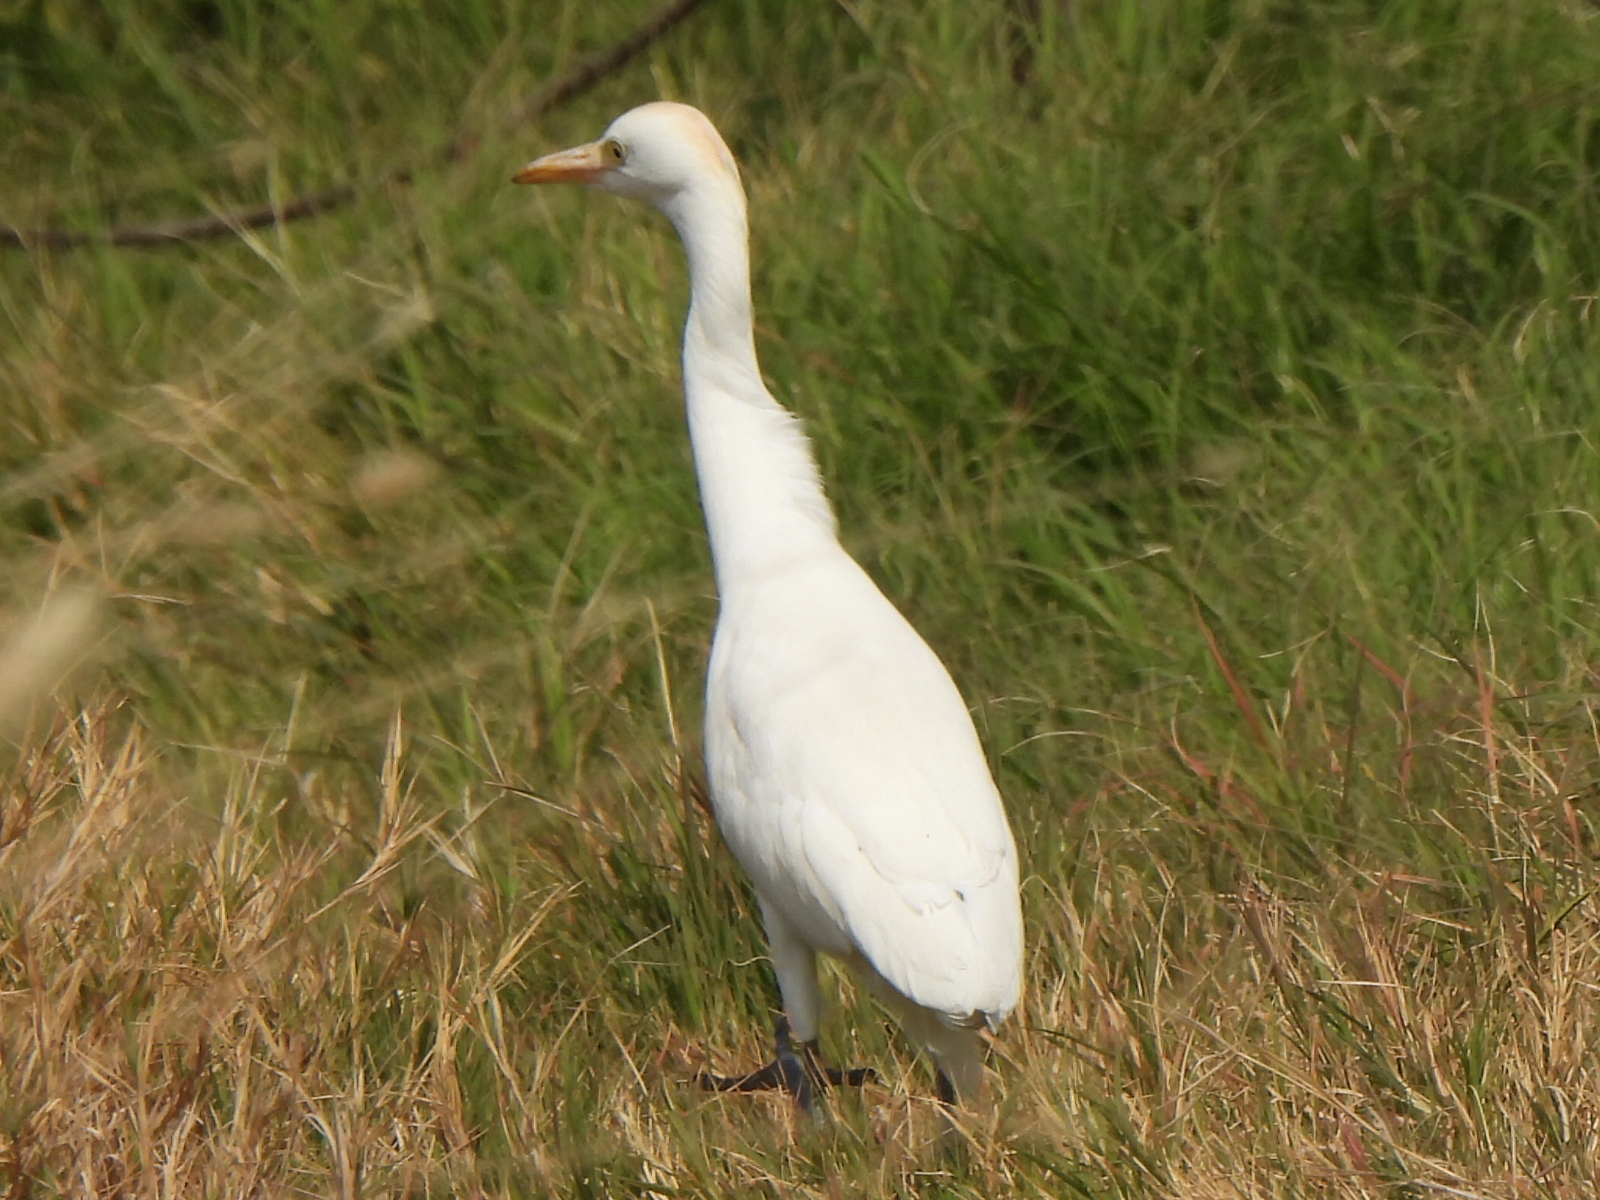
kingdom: Animalia
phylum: Chordata
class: Aves
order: Pelecaniformes
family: Ardeidae
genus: Bubulcus
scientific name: Bubulcus ibis
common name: Cattle egret
